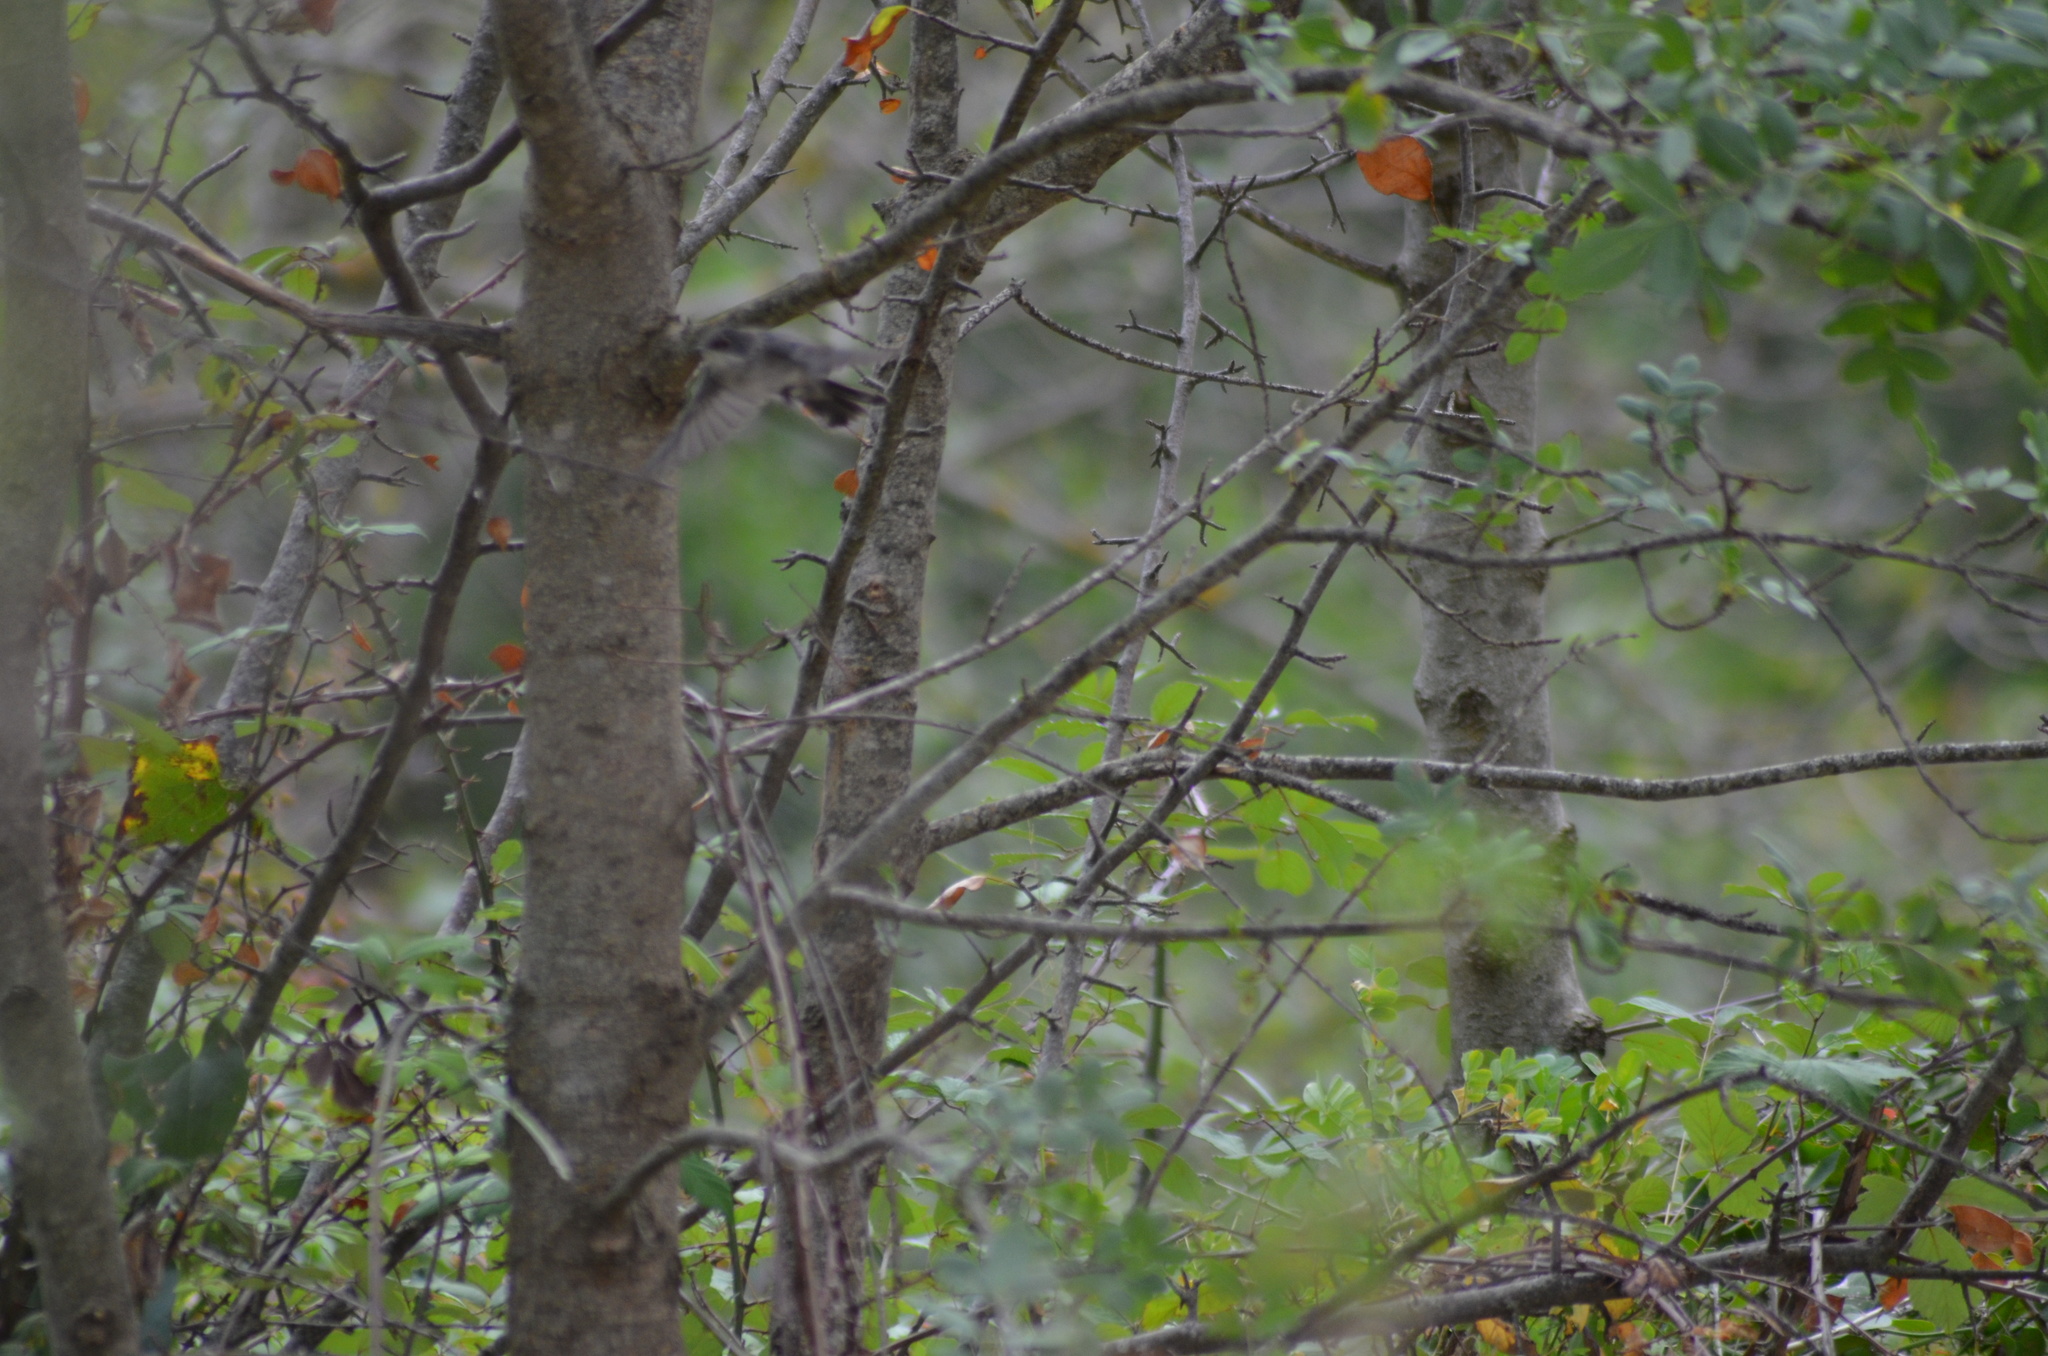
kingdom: Animalia
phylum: Chordata
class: Aves
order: Passeriformes
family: Sylviidae
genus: Curruca
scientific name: Curruca melanocephala
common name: Sardinian warbler
